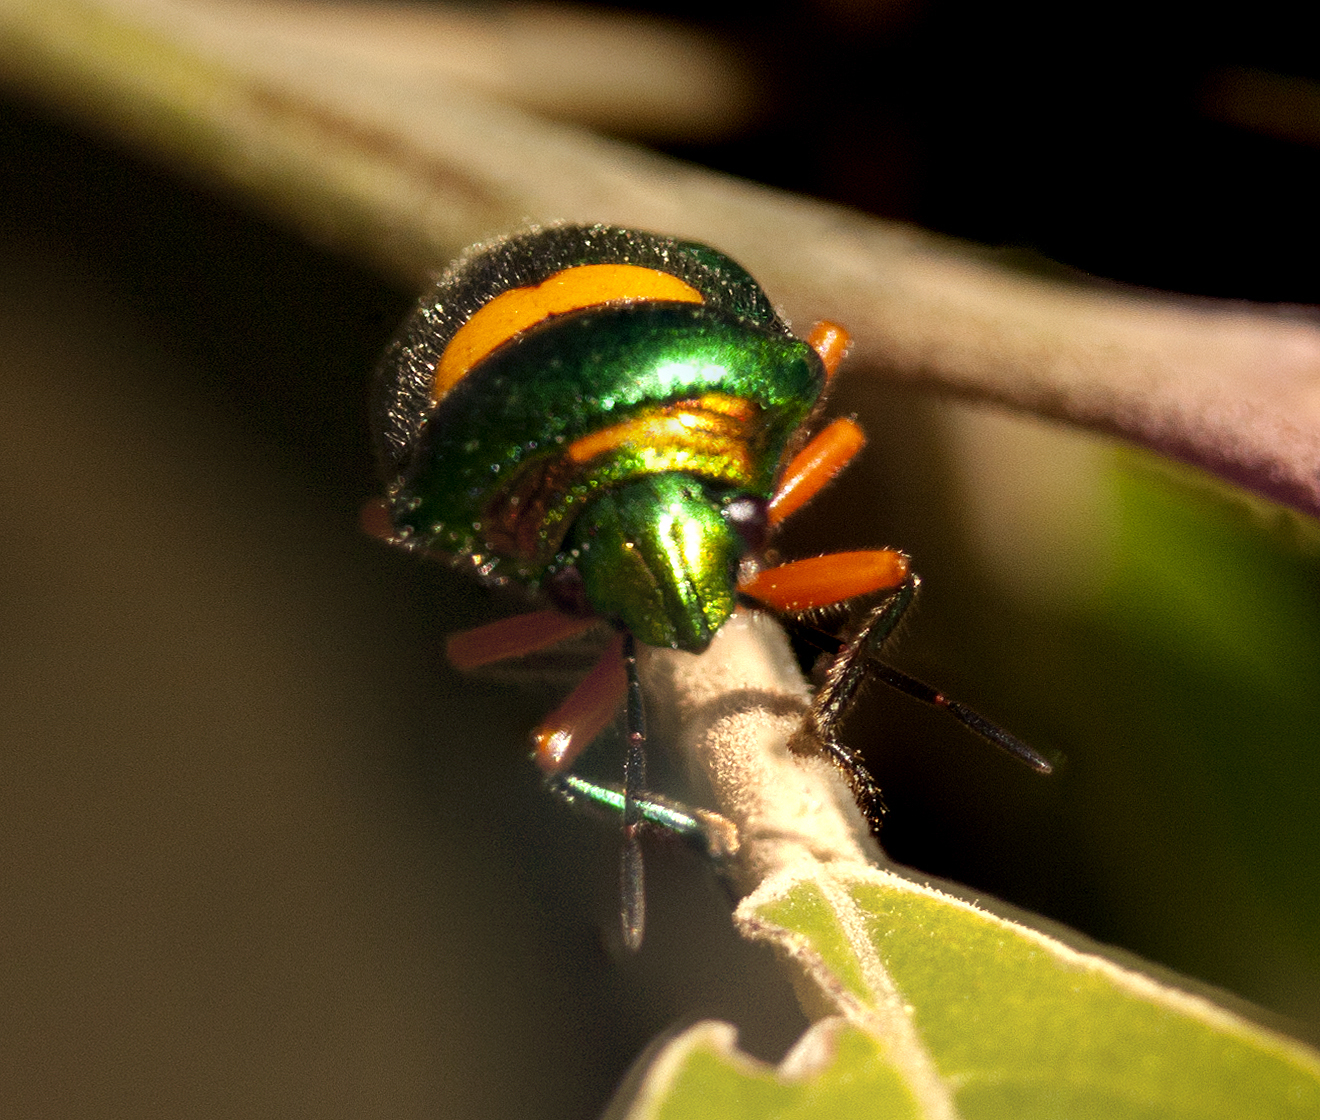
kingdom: Animalia
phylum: Arthropoda
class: Insecta
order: Hemiptera
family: Scutelleridae
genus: Lampromicra
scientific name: Lampromicra senator
